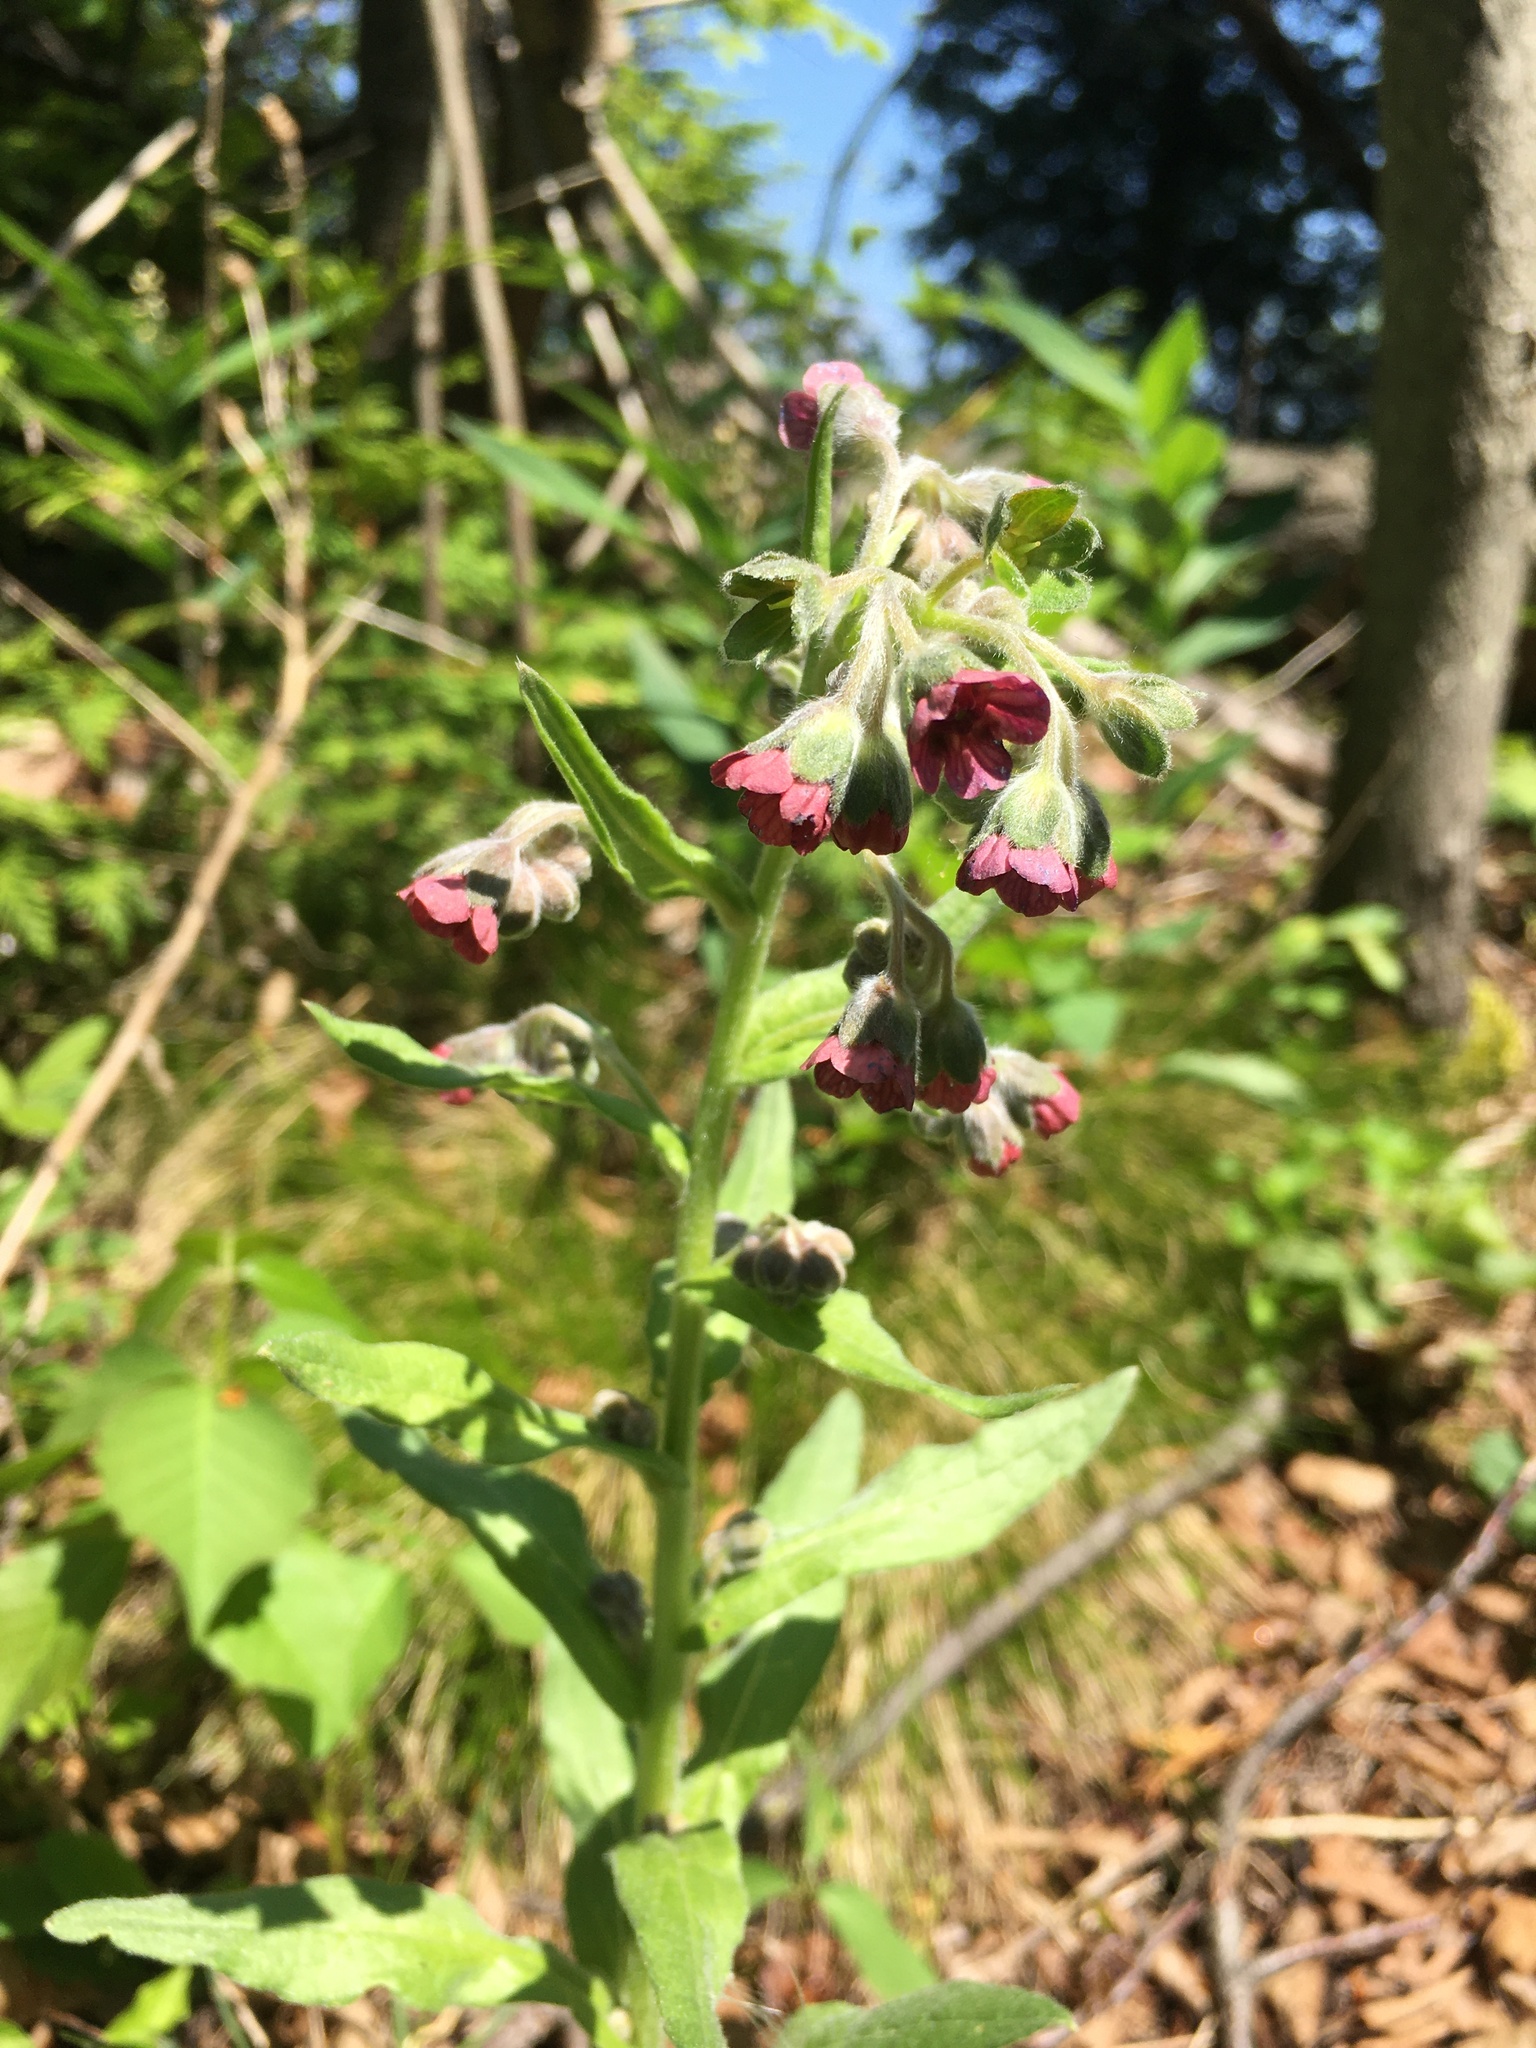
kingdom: Plantae
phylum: Tracheophyta
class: Magnoliopsida
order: Boraginales
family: Boraginaceae
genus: Cynoglossum
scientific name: Cynoglossum officinale
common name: Hound's-tongue
